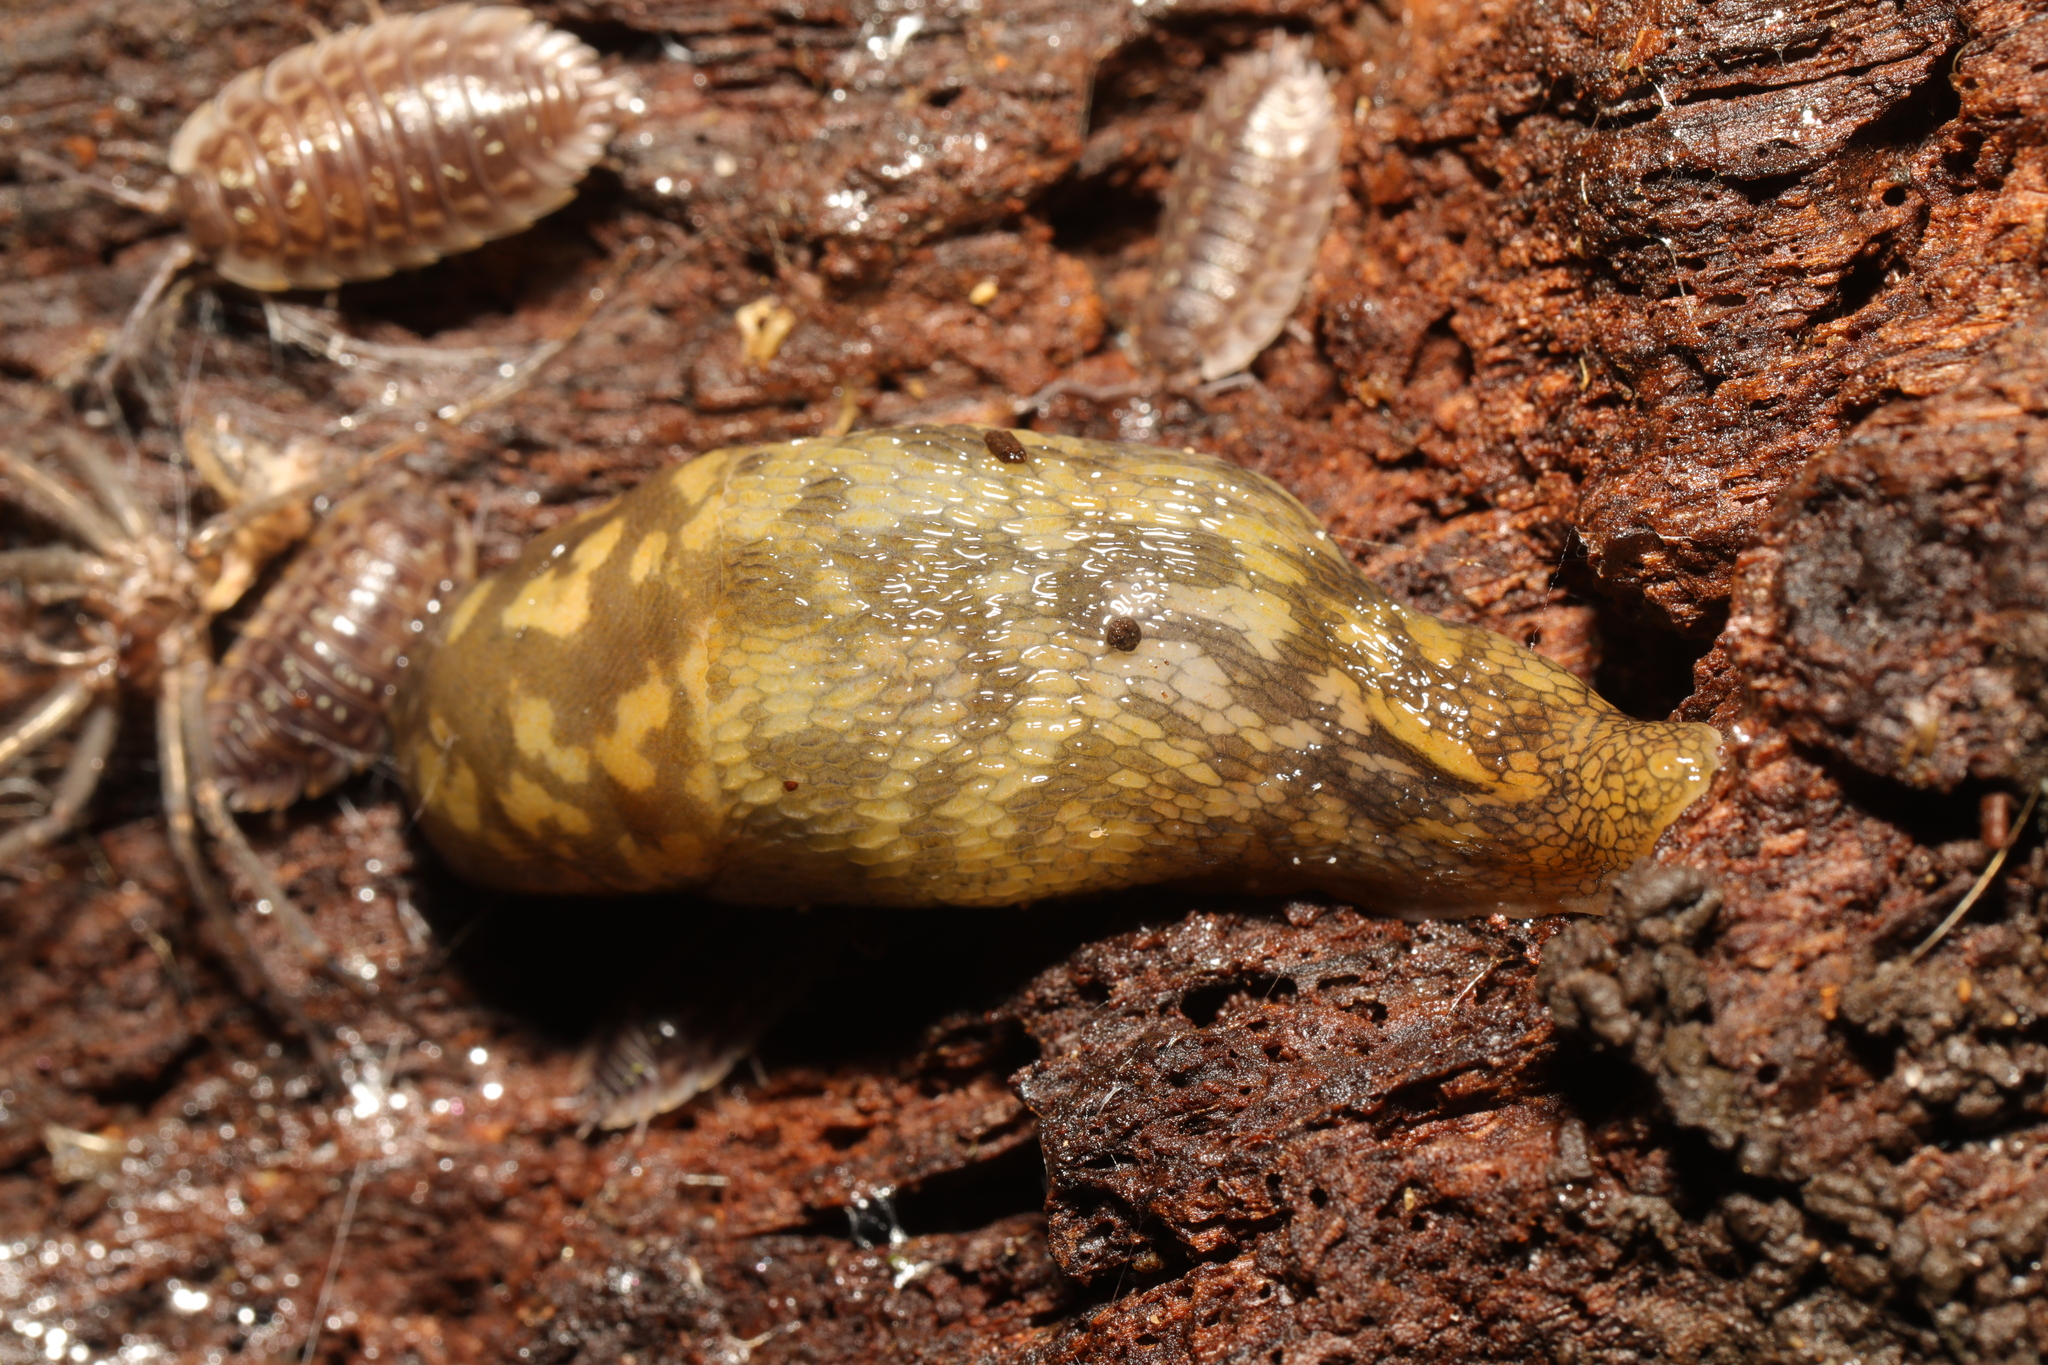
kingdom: Animalia
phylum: Mollusca
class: Gastropoda
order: Stylommatophora
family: Limacidae
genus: Limacus
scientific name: Limacus maculatus
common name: Irish yellow slug
